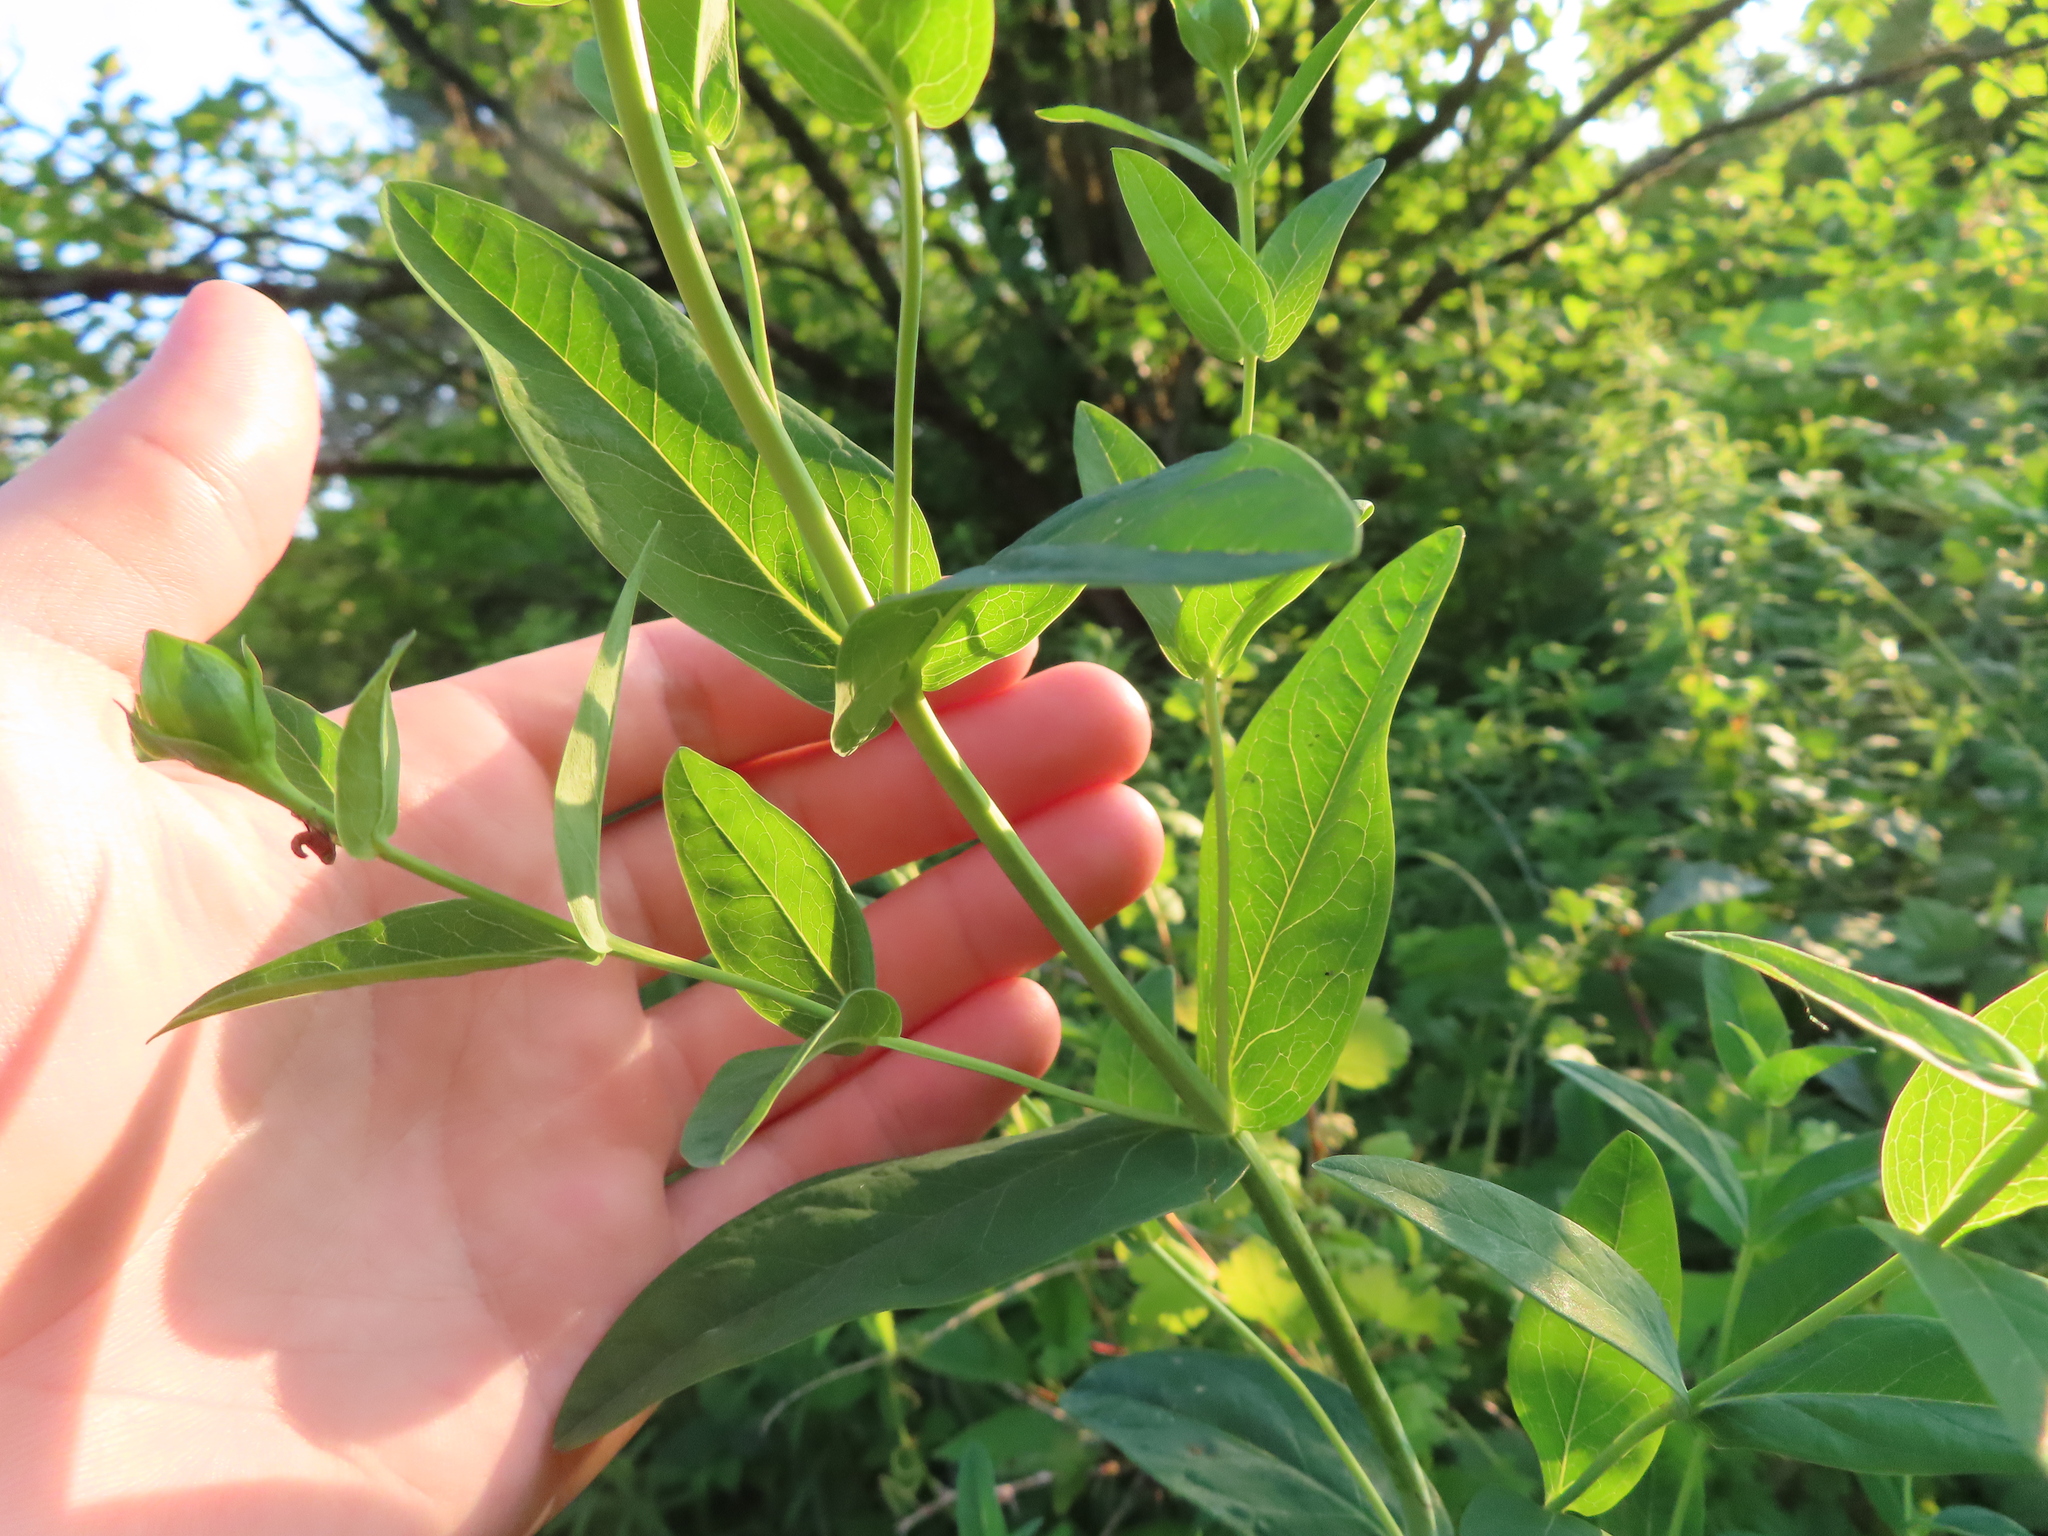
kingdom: Plantae
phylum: Tracheophyta
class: Magnoliopsida
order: Malpighiales
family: Hypericaceae
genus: Hypericum
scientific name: Hypericum ascyron
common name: Giant st. john's-wort
